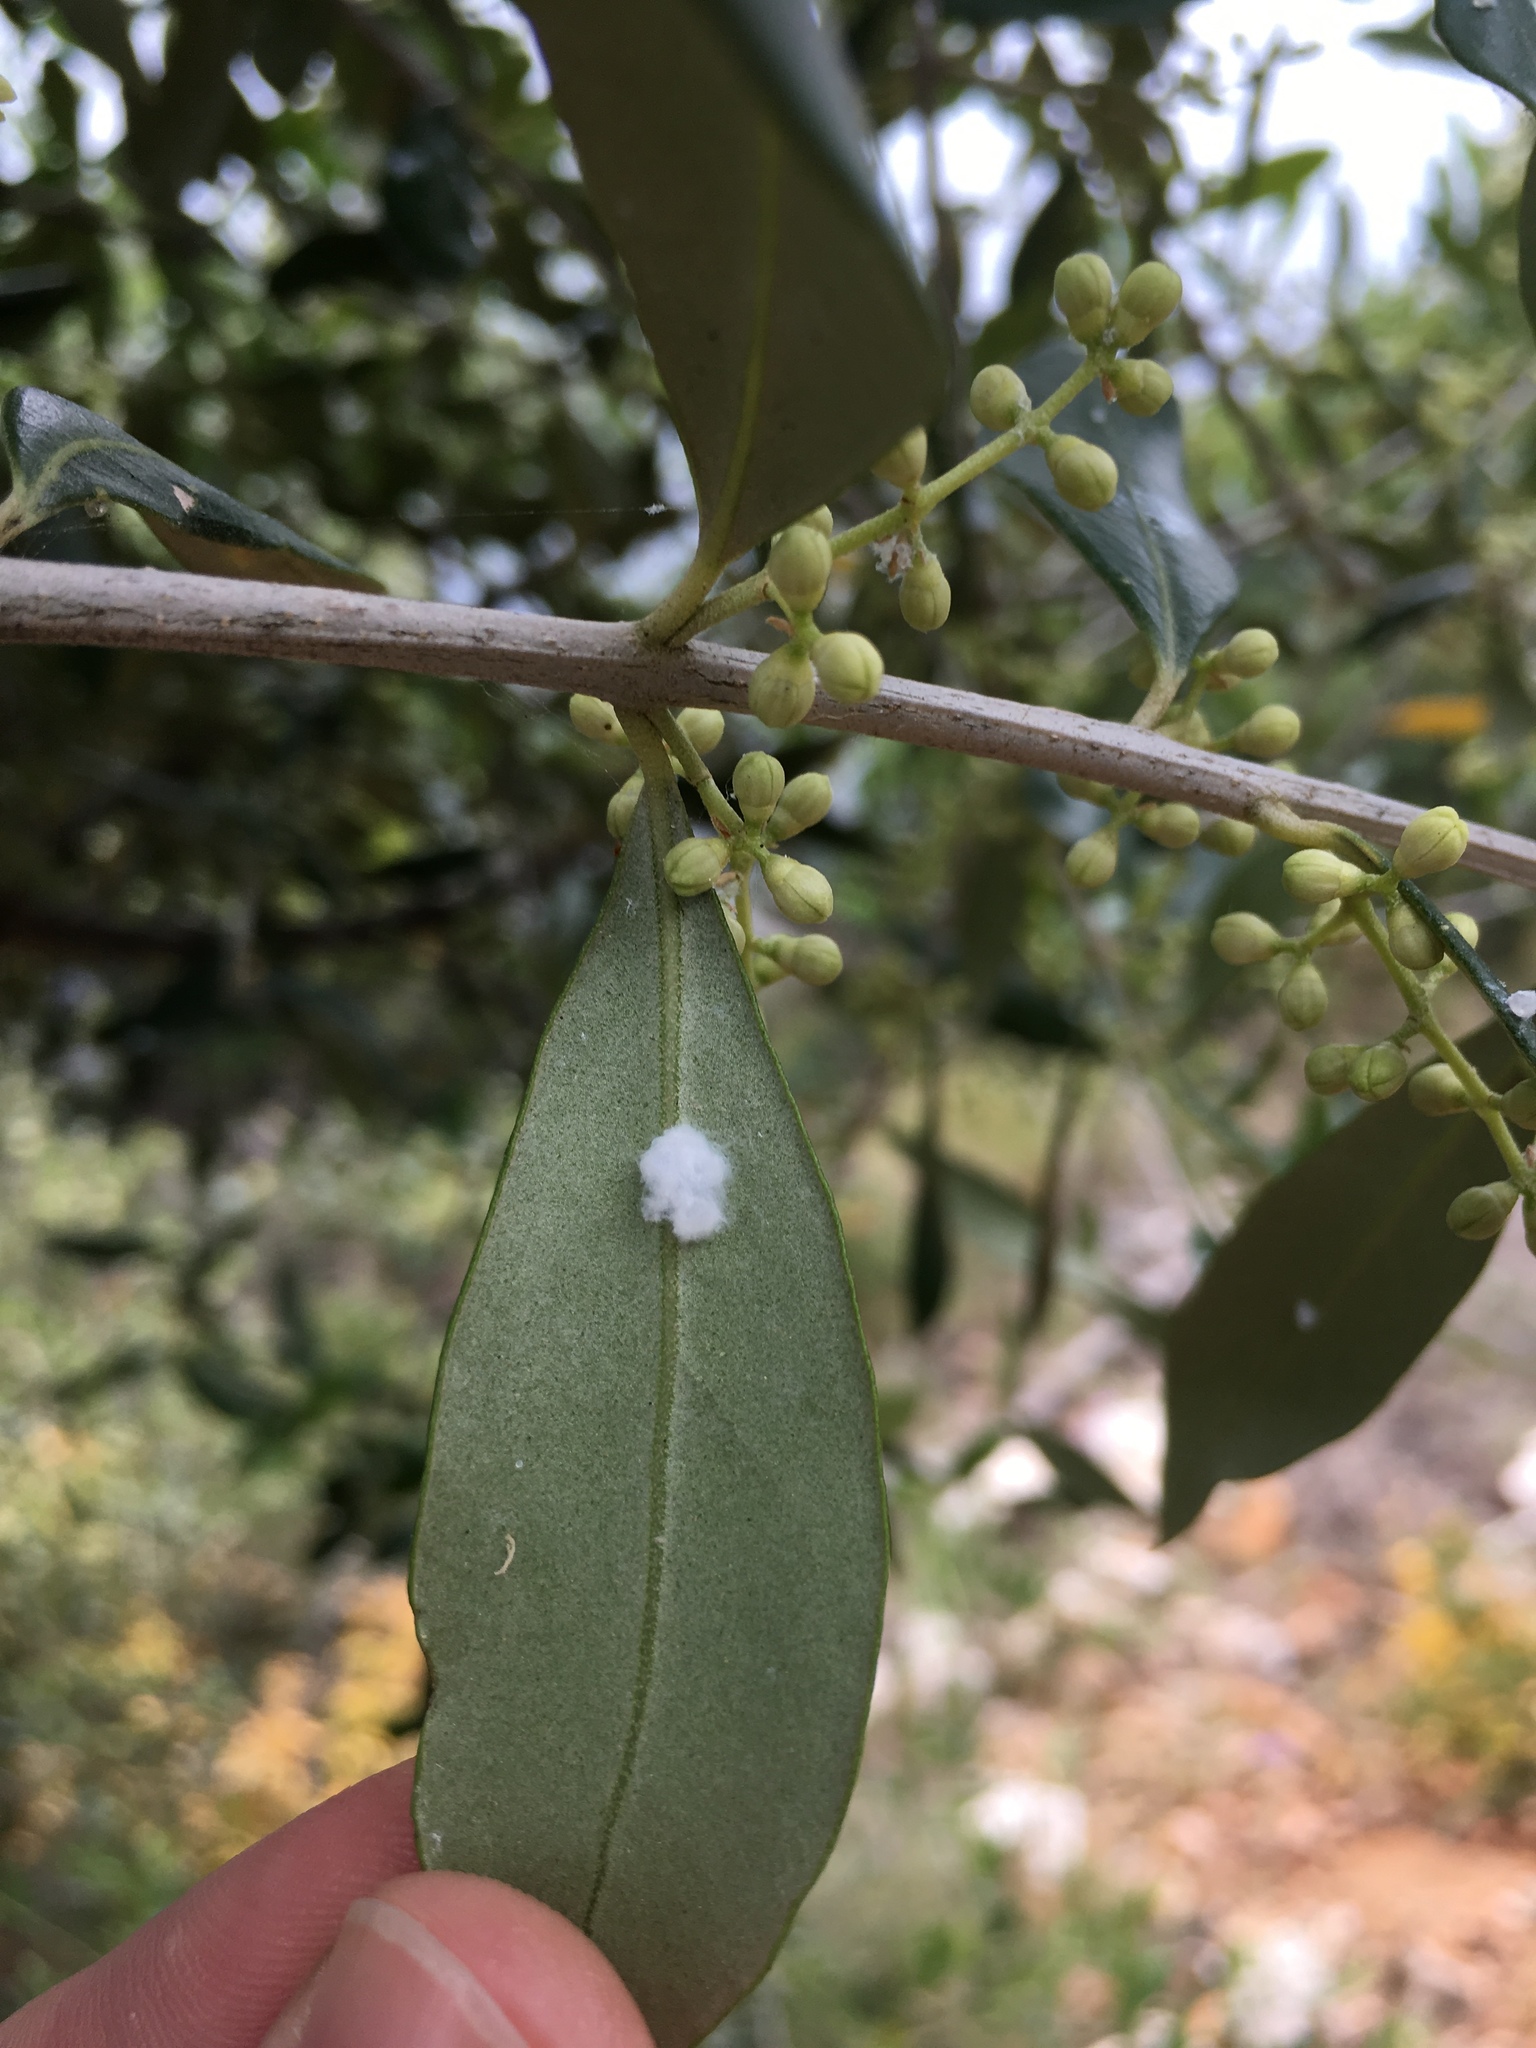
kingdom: Plantae
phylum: Tracheophyta
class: Magnoliopsida
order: Lamiales
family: Oleaceae
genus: Olea
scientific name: Olea europaea
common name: Olive
